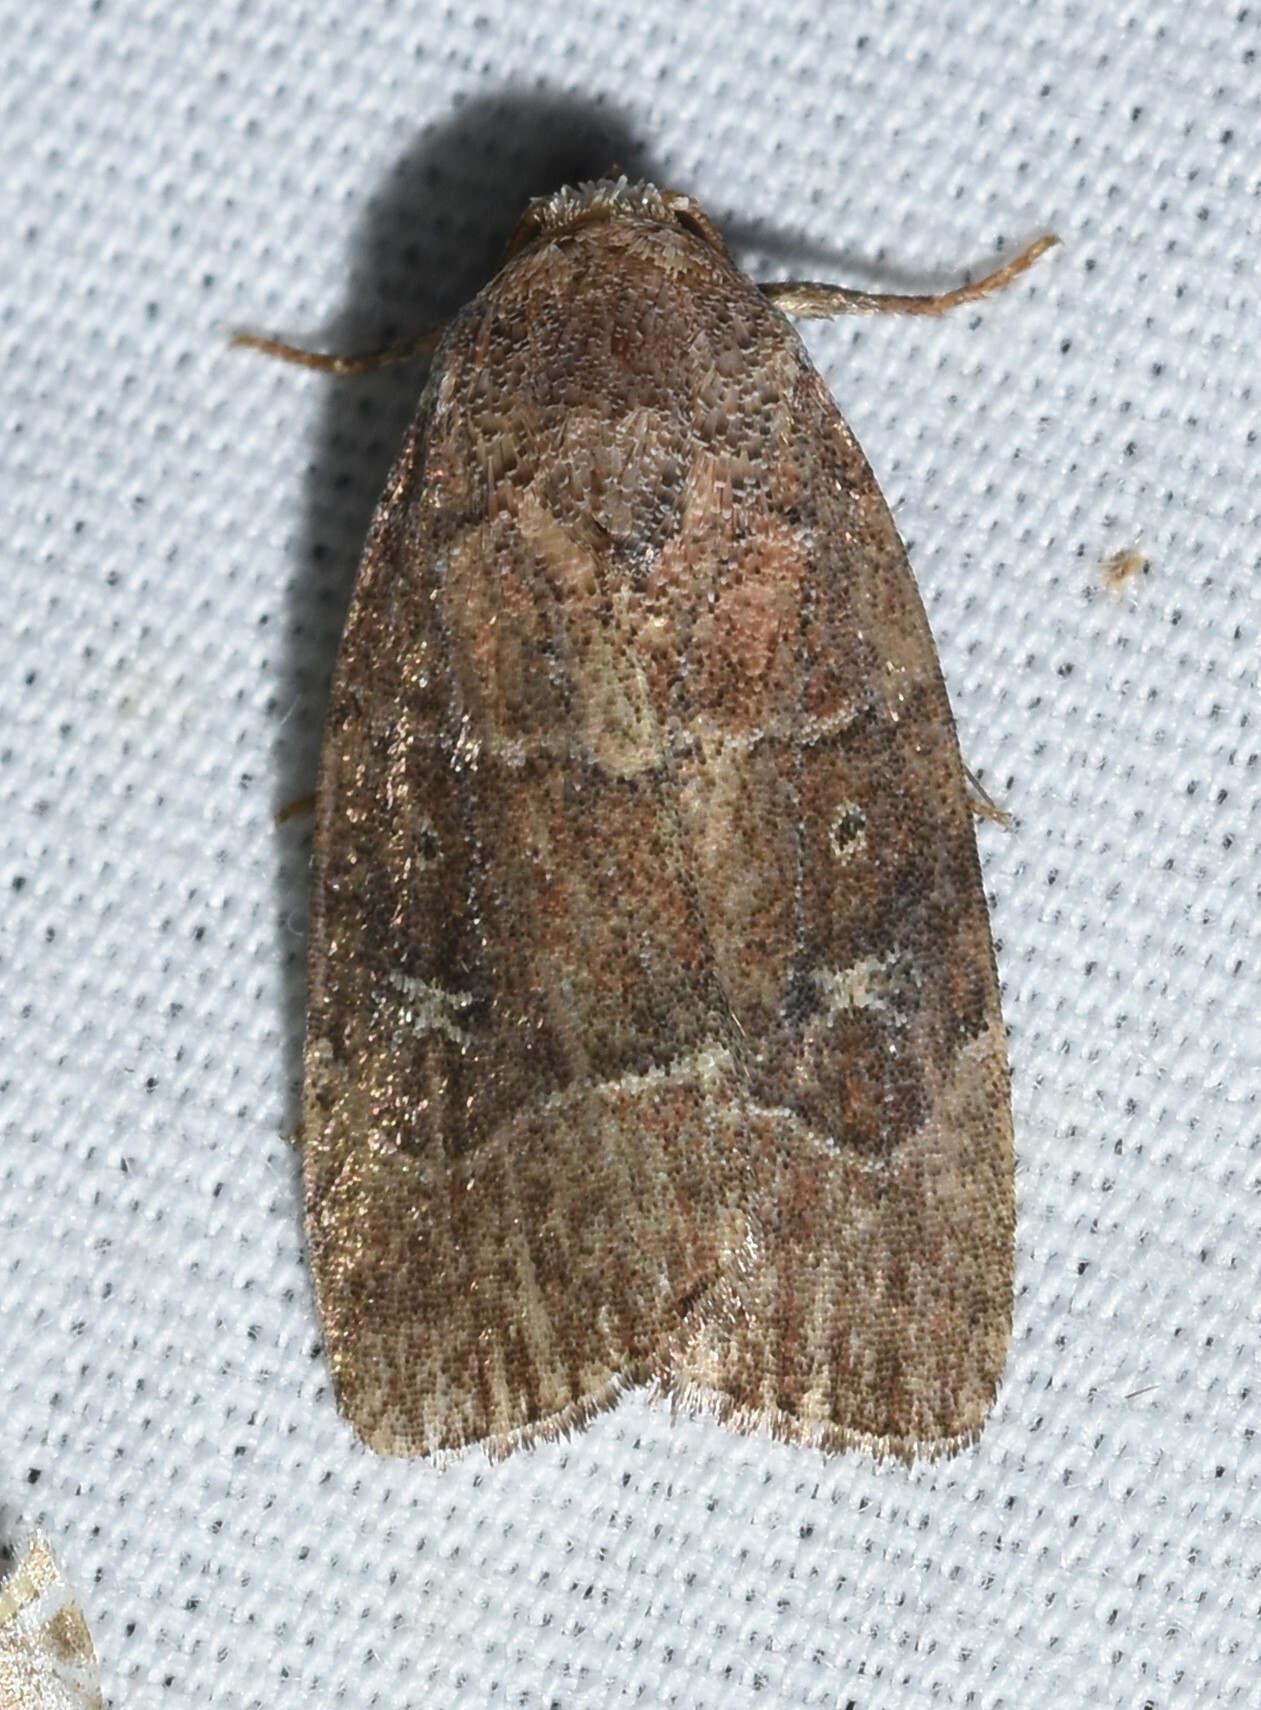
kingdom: Animalia
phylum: Arthropoda
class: Insecta
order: Lepidoptera
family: Noctuidae
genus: Elaphria
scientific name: Elaphria grata
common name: Grateful midget moth
